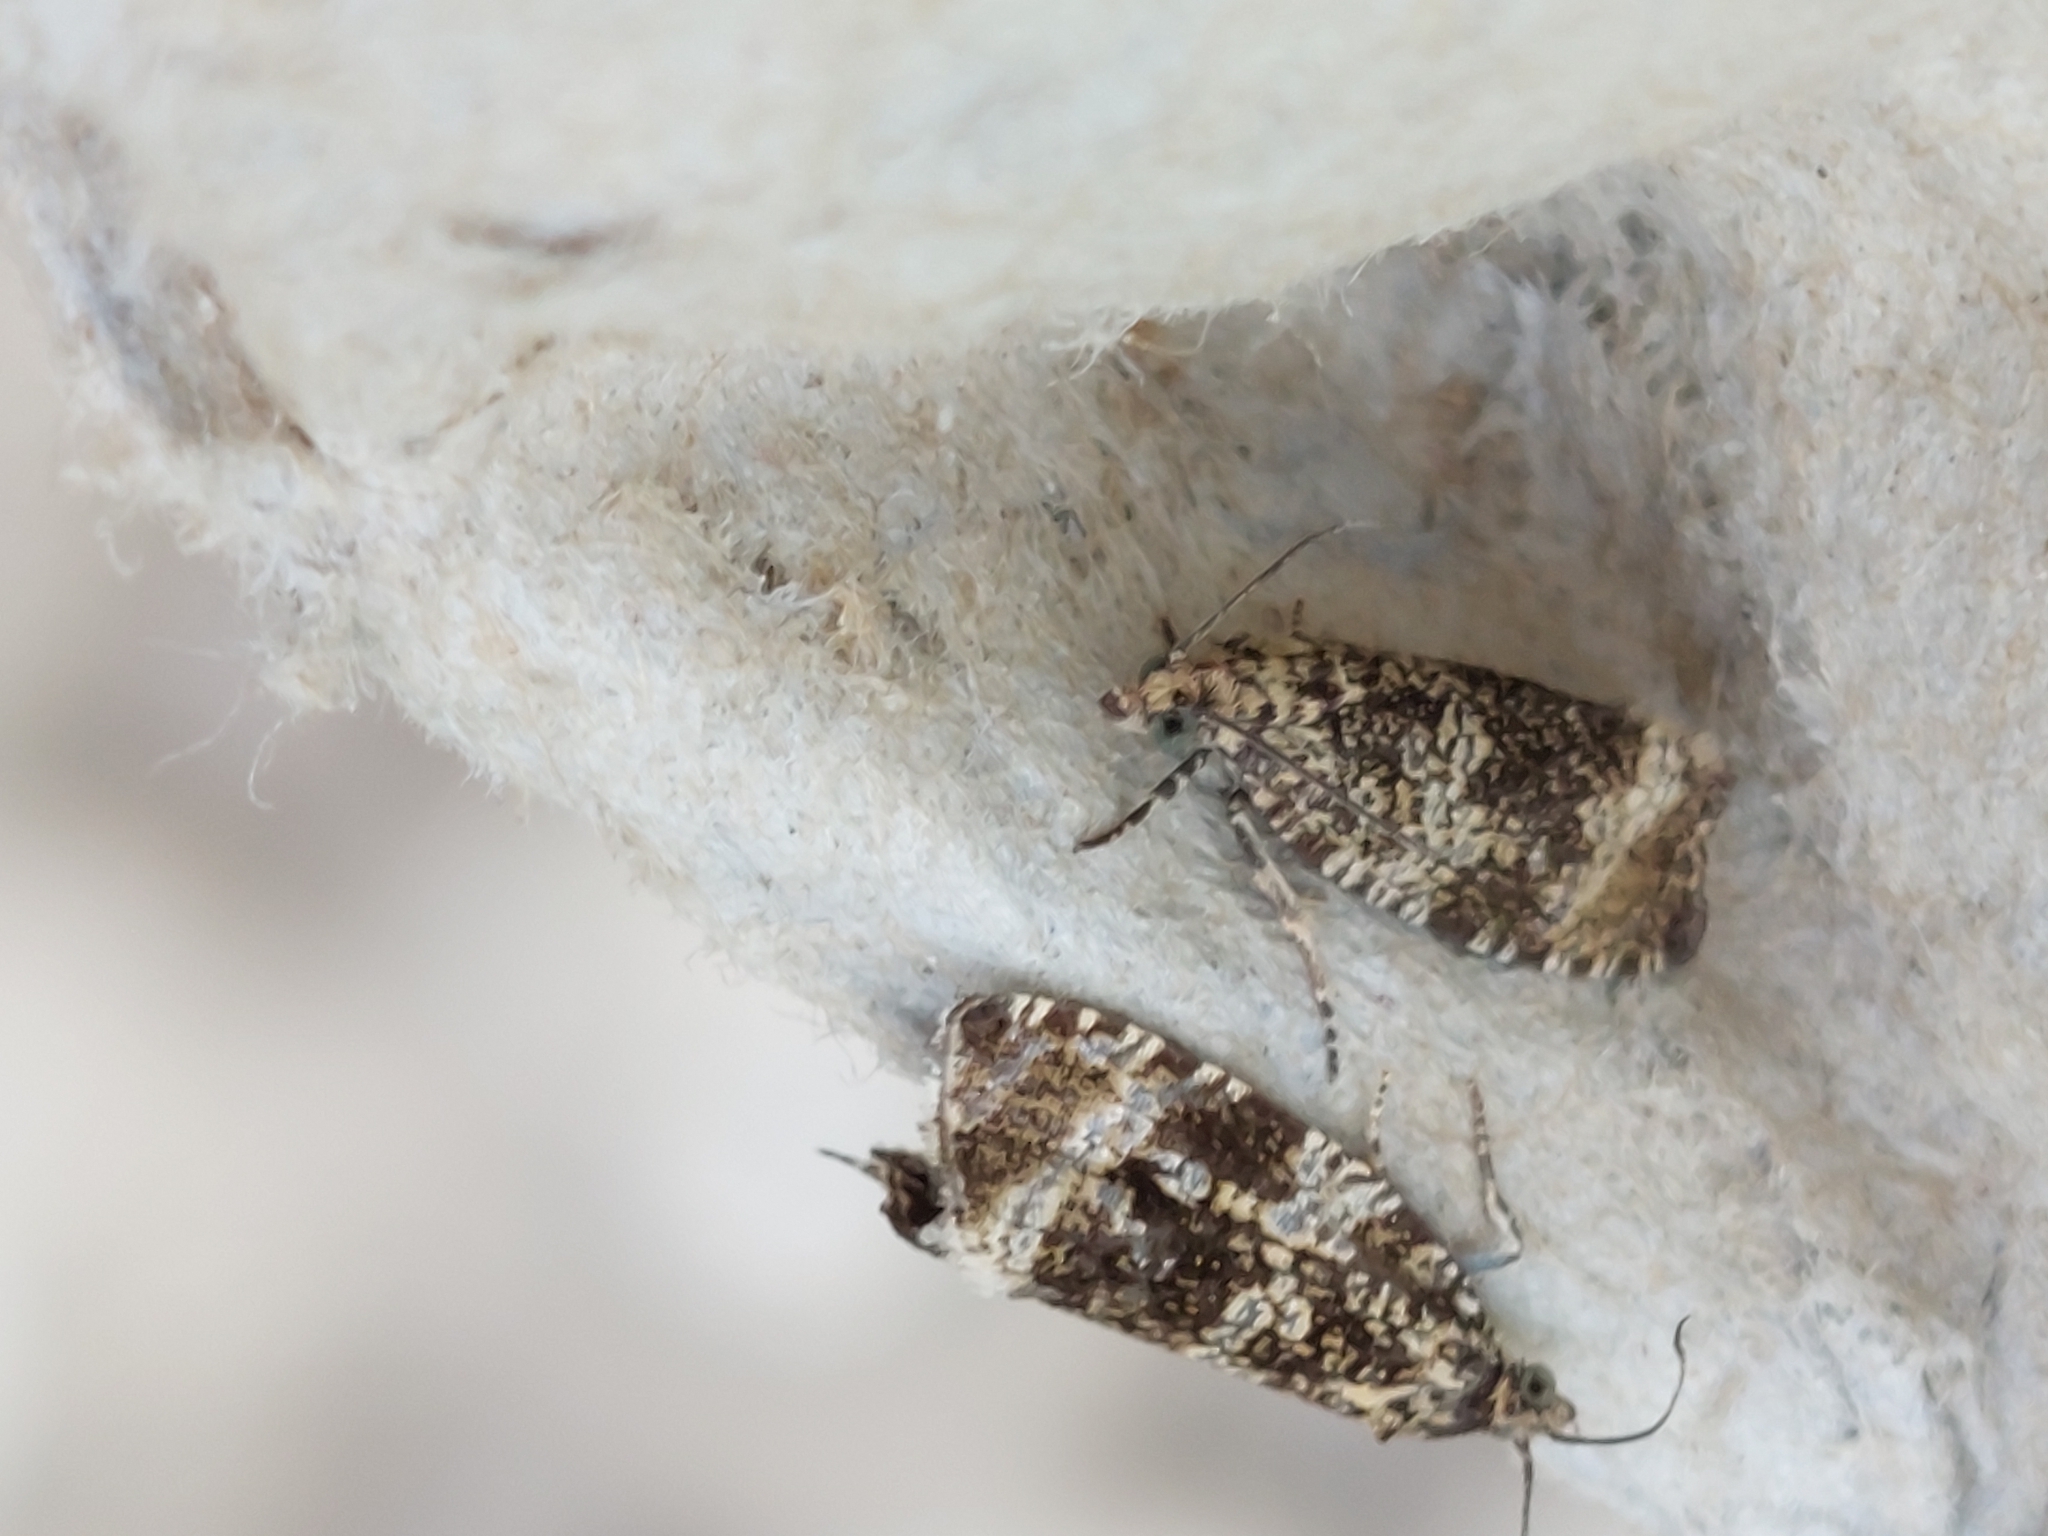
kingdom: Animalia
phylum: Arthropoda
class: Insecta
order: Lepidoptera
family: Tortricidae
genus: Syricoris
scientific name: Syricoris lacunana
